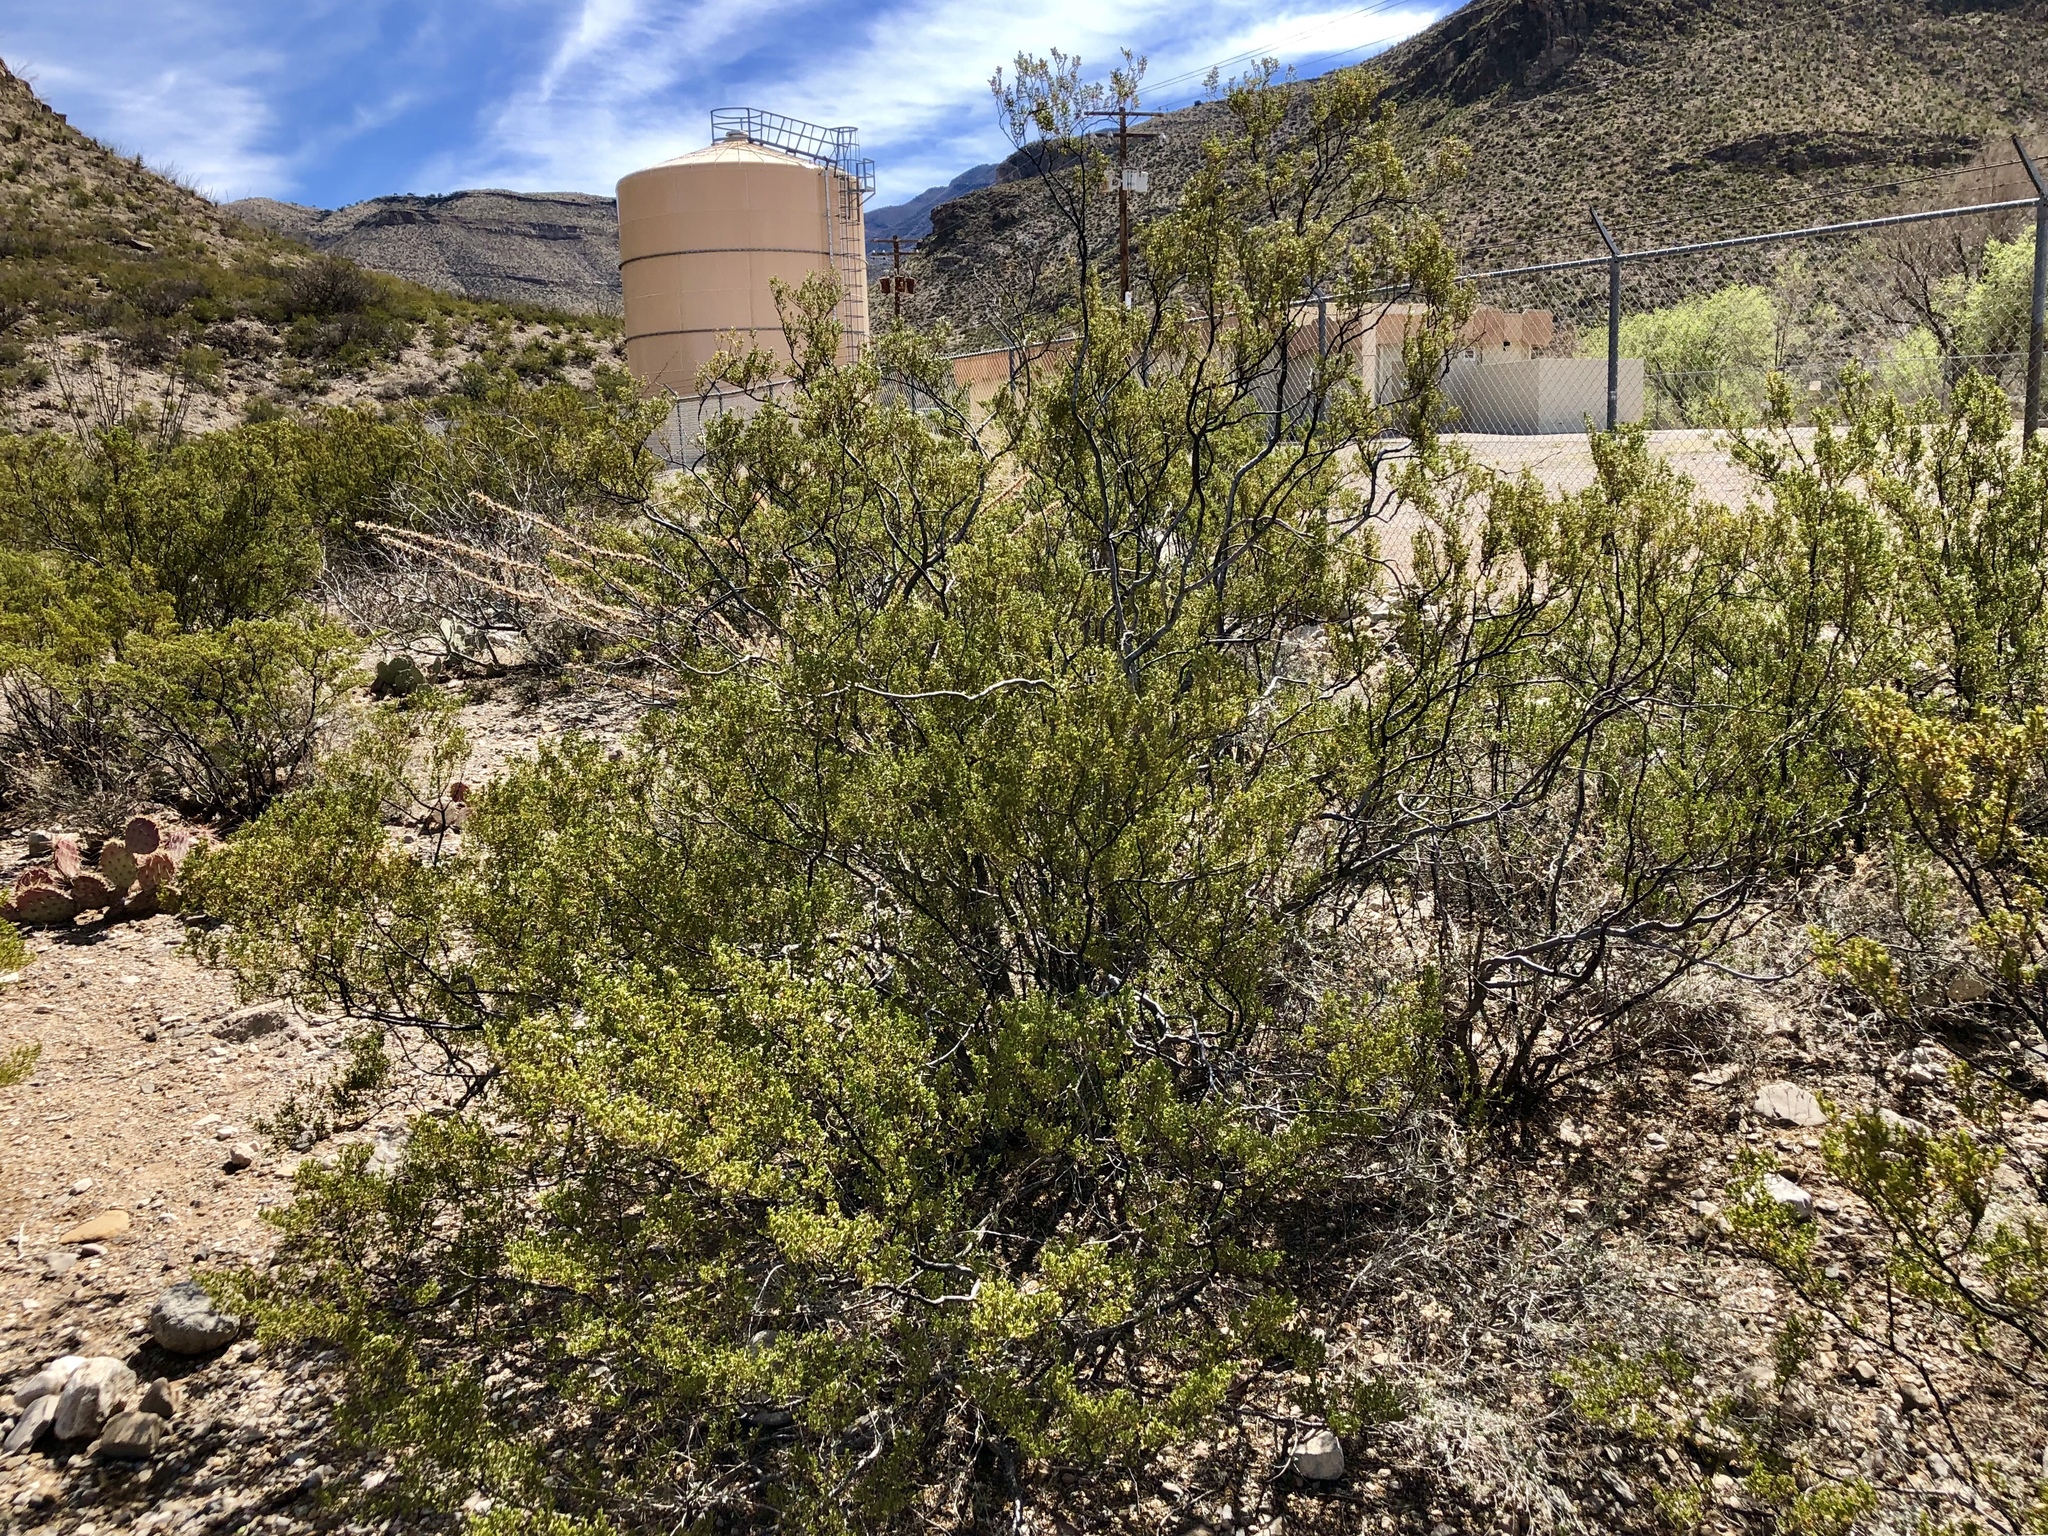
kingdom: Plantae
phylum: Tracheophyta
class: Magnoliopsida
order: Zygophyllales
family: Zygophyllaceae
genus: Larrea
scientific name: Larrea tridentata
